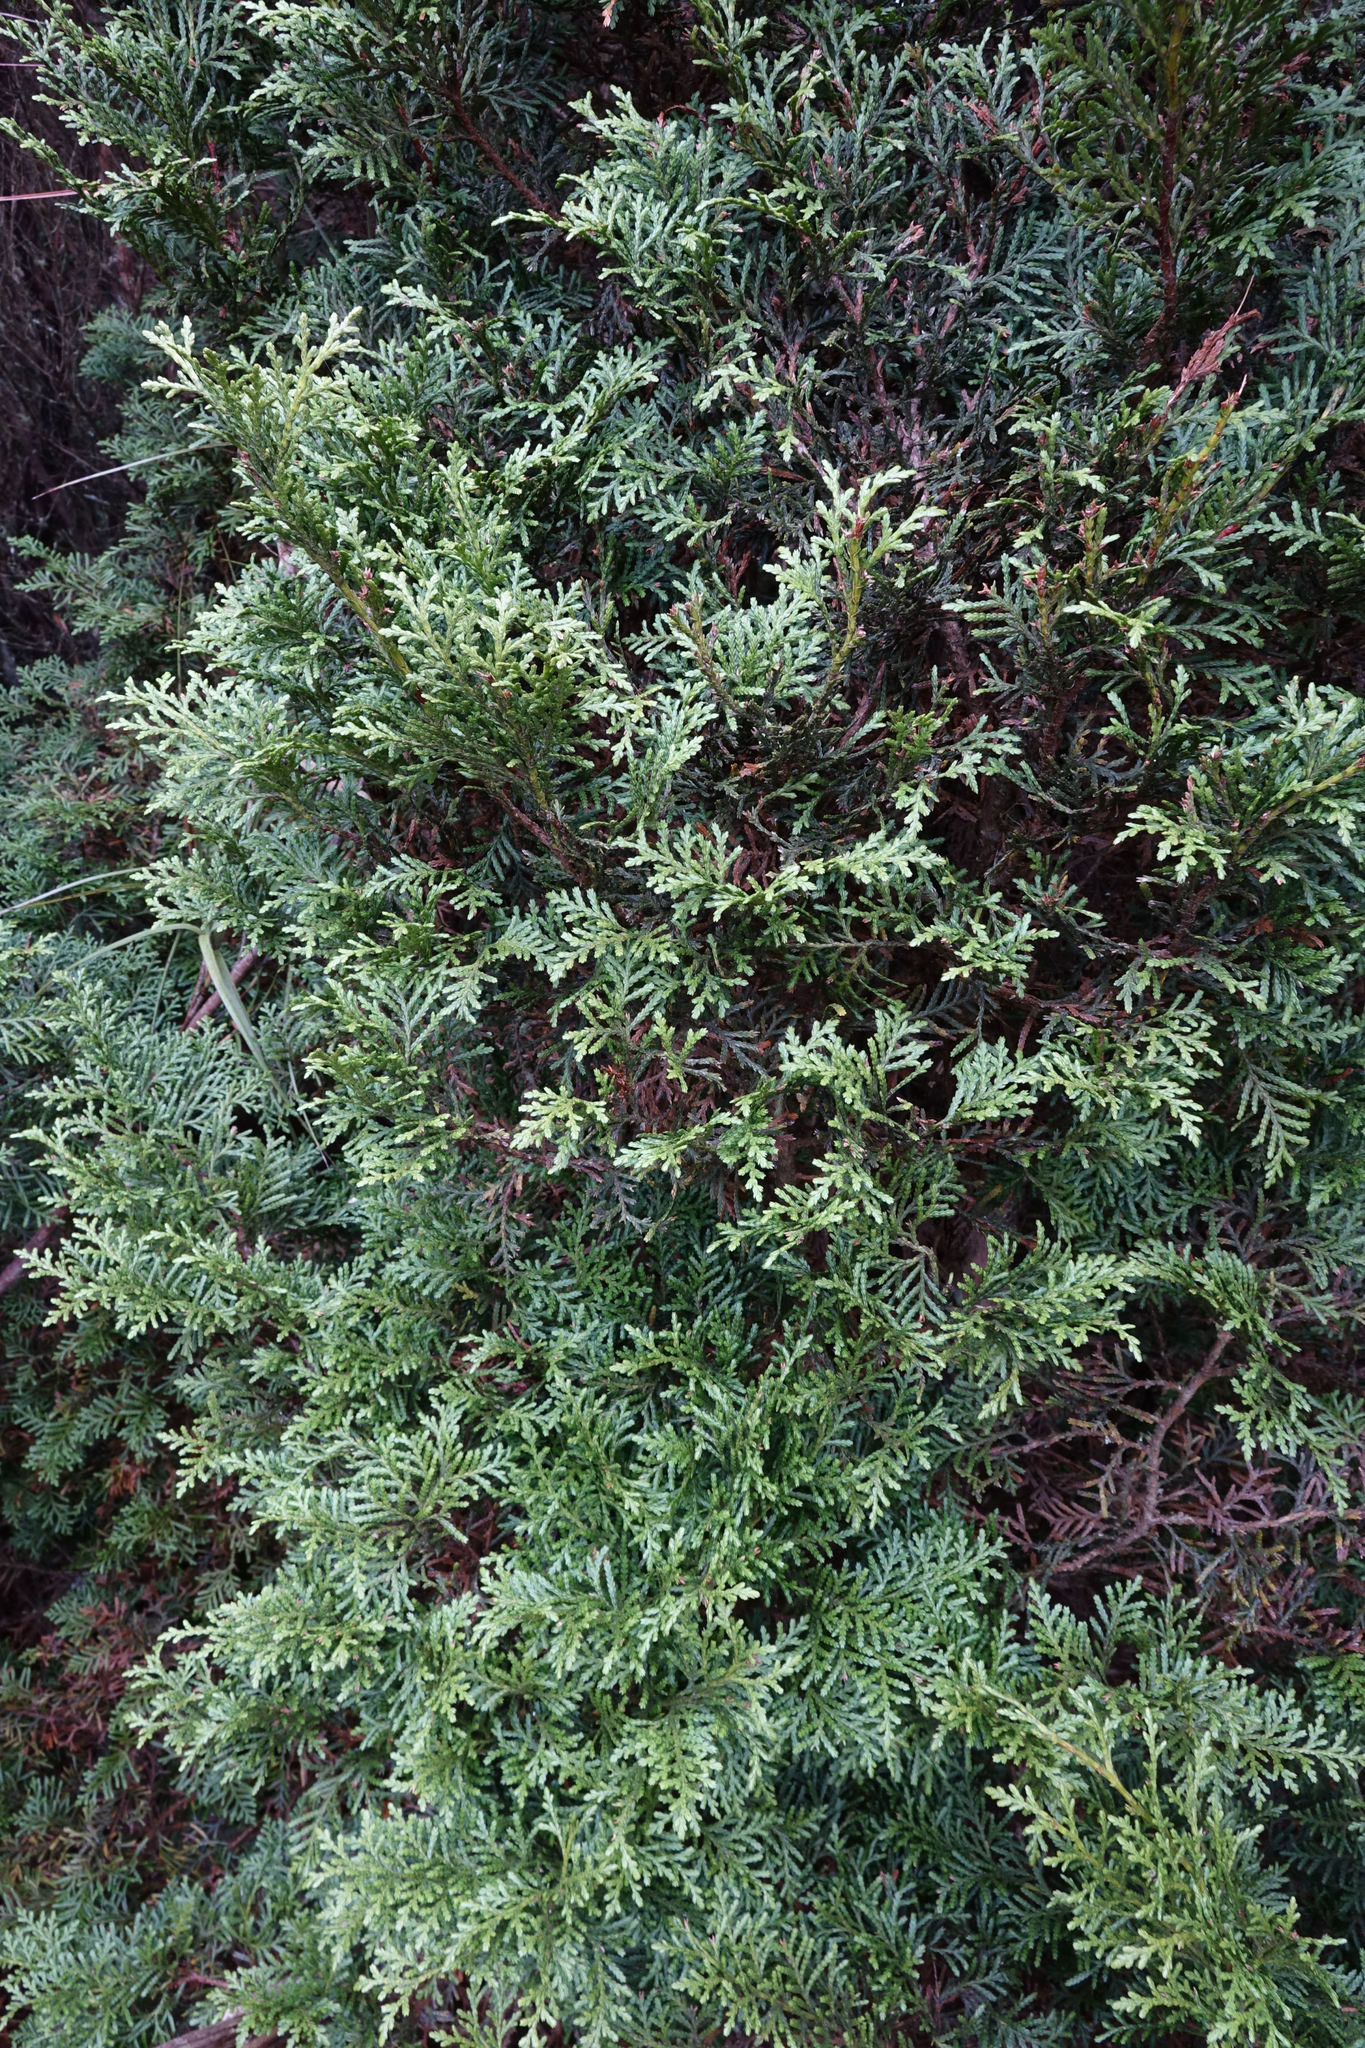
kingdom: Plantae
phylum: Tracheophyta
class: Pinopsida
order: Pinales
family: Cupressaceae
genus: Libocedrus
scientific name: Libocedrus bidwillii
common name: Cedar
